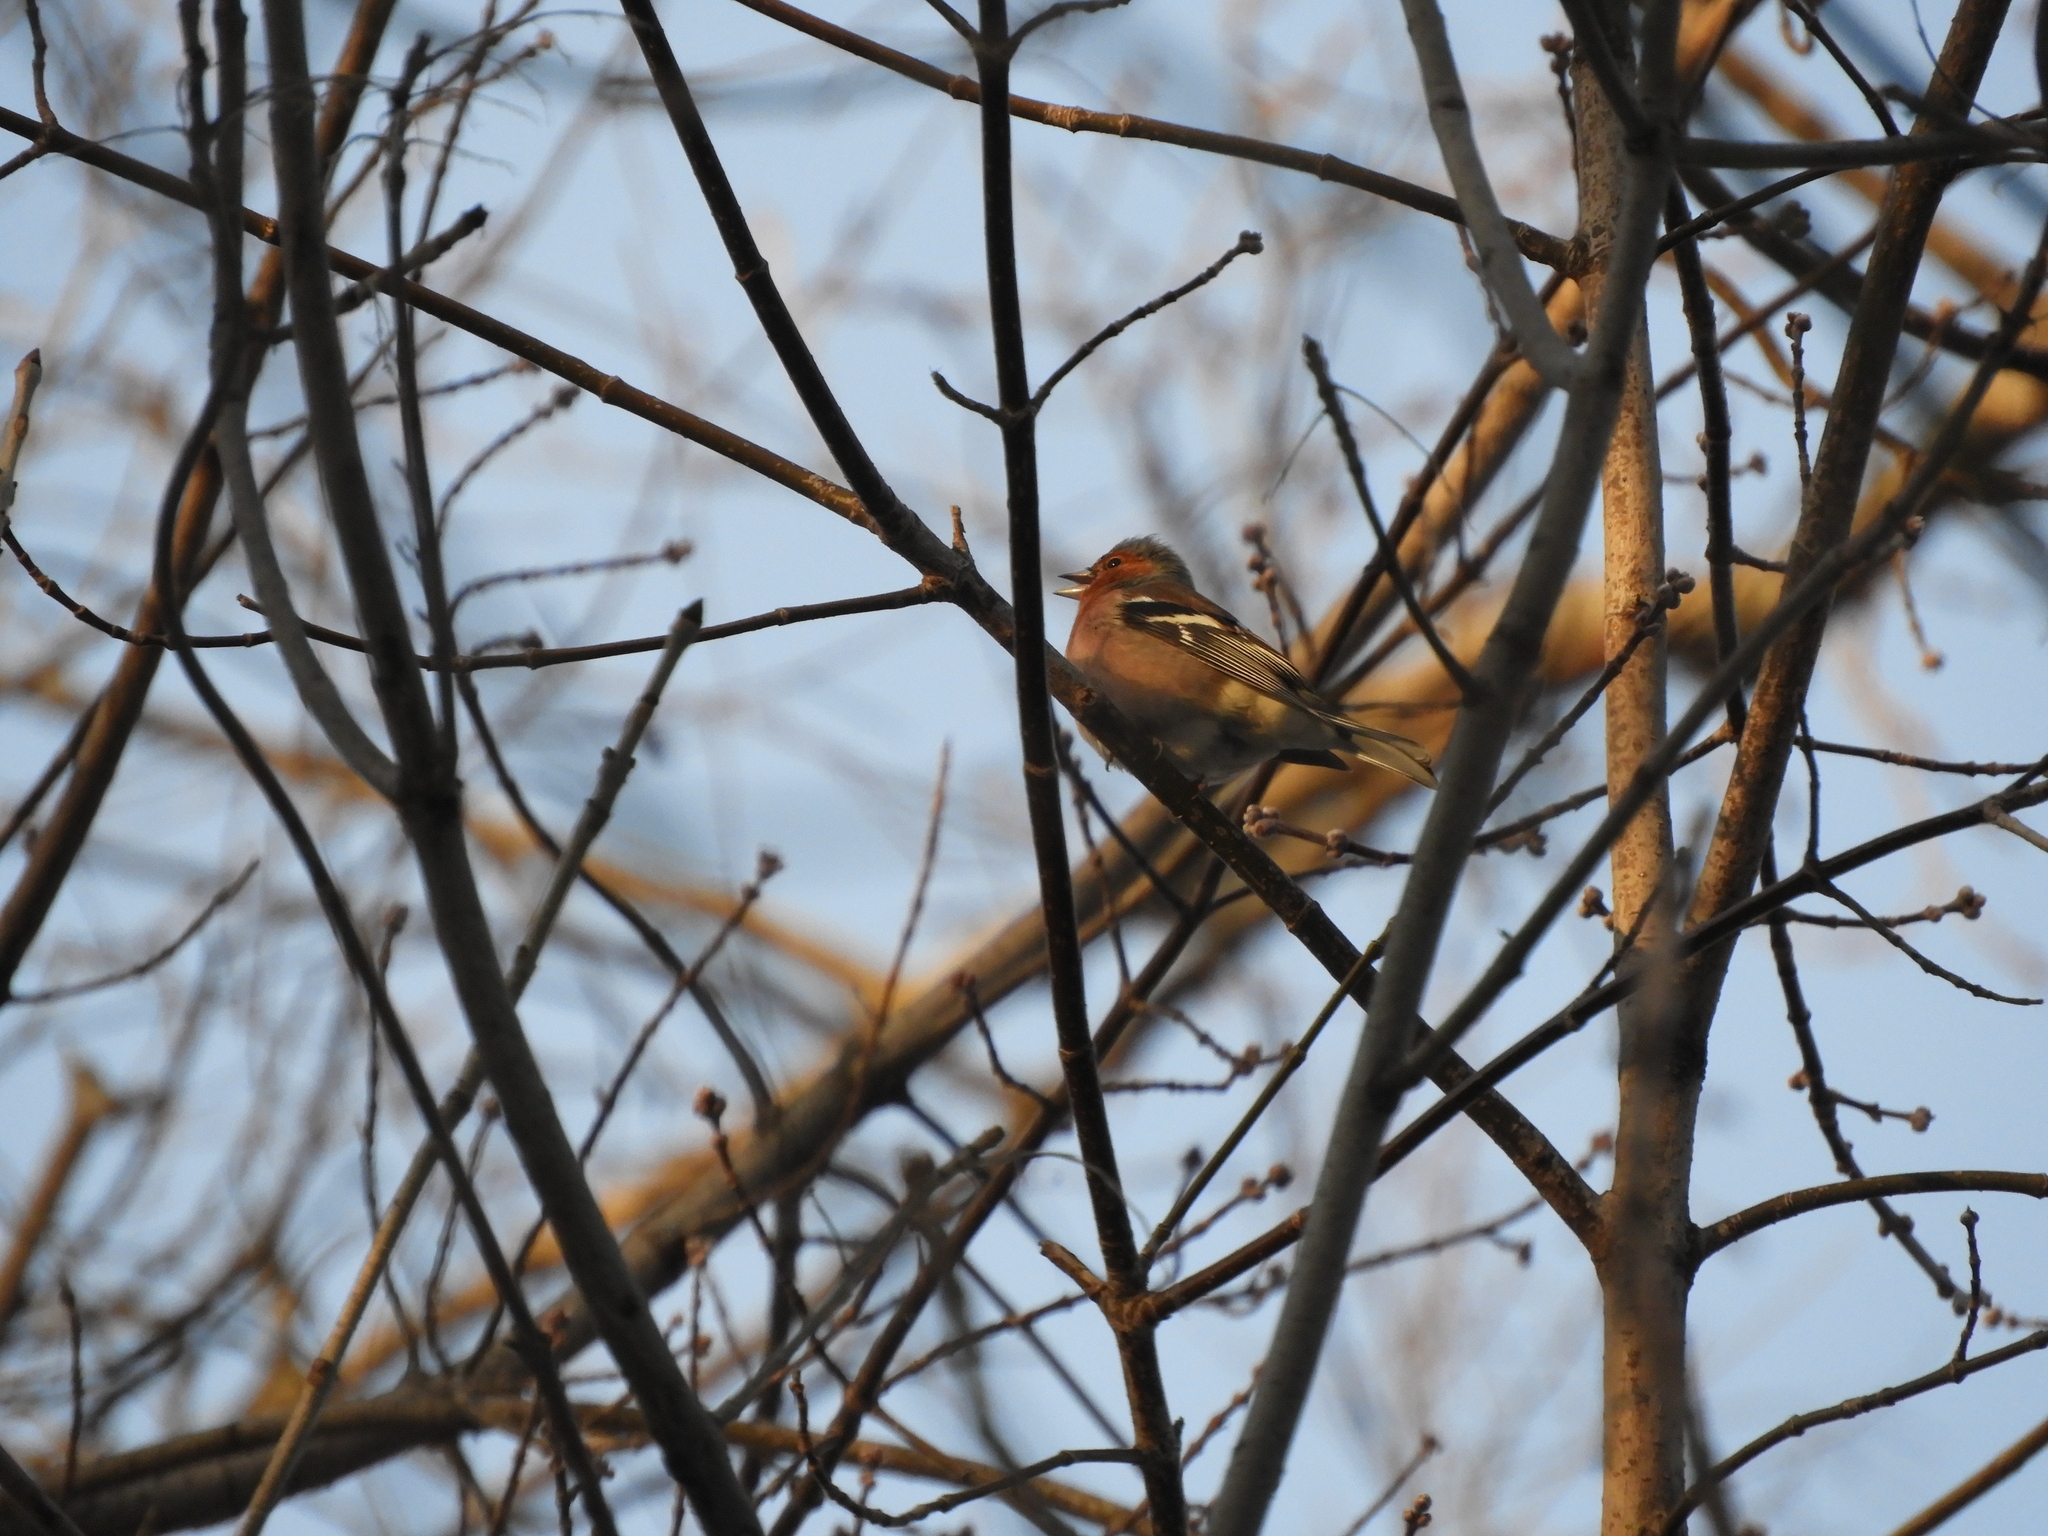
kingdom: Animalia
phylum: Chordata
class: Aves
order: Passeriformes
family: Fringillidae
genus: Fringilla
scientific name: Fringilla coelebs
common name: Common chaffinch
